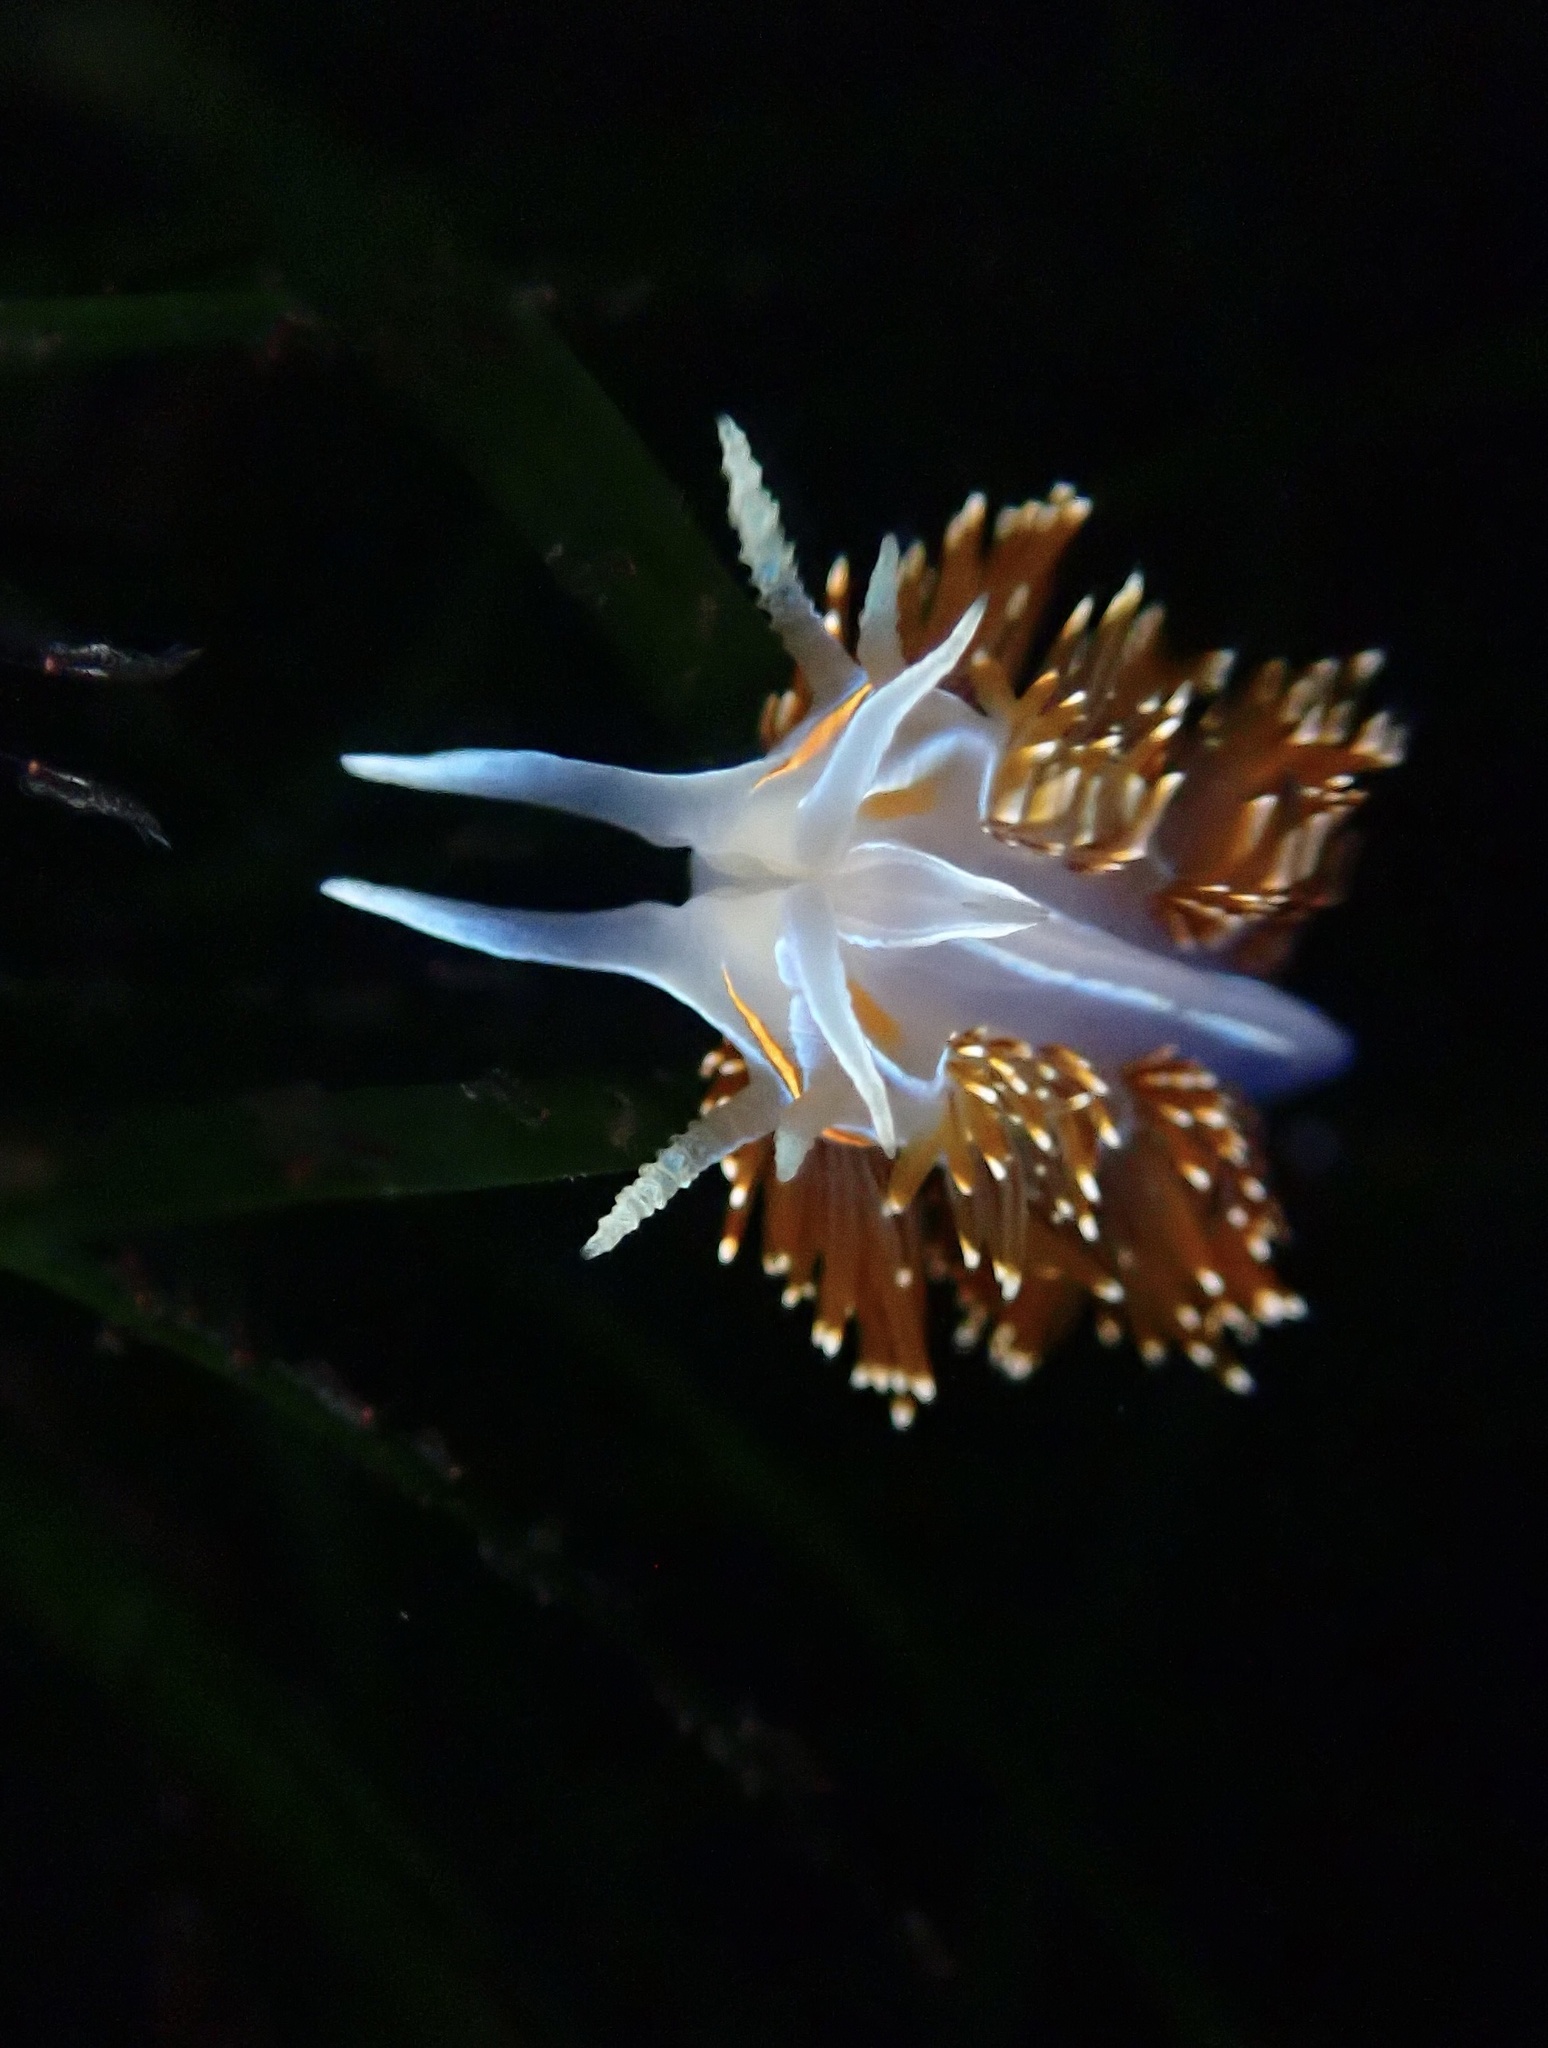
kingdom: Animalia
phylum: Mollusca
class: Gastropoda
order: Nudibranchia
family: Myrrhinidae
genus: Hermissenda
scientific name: Hermissenda opalescens
